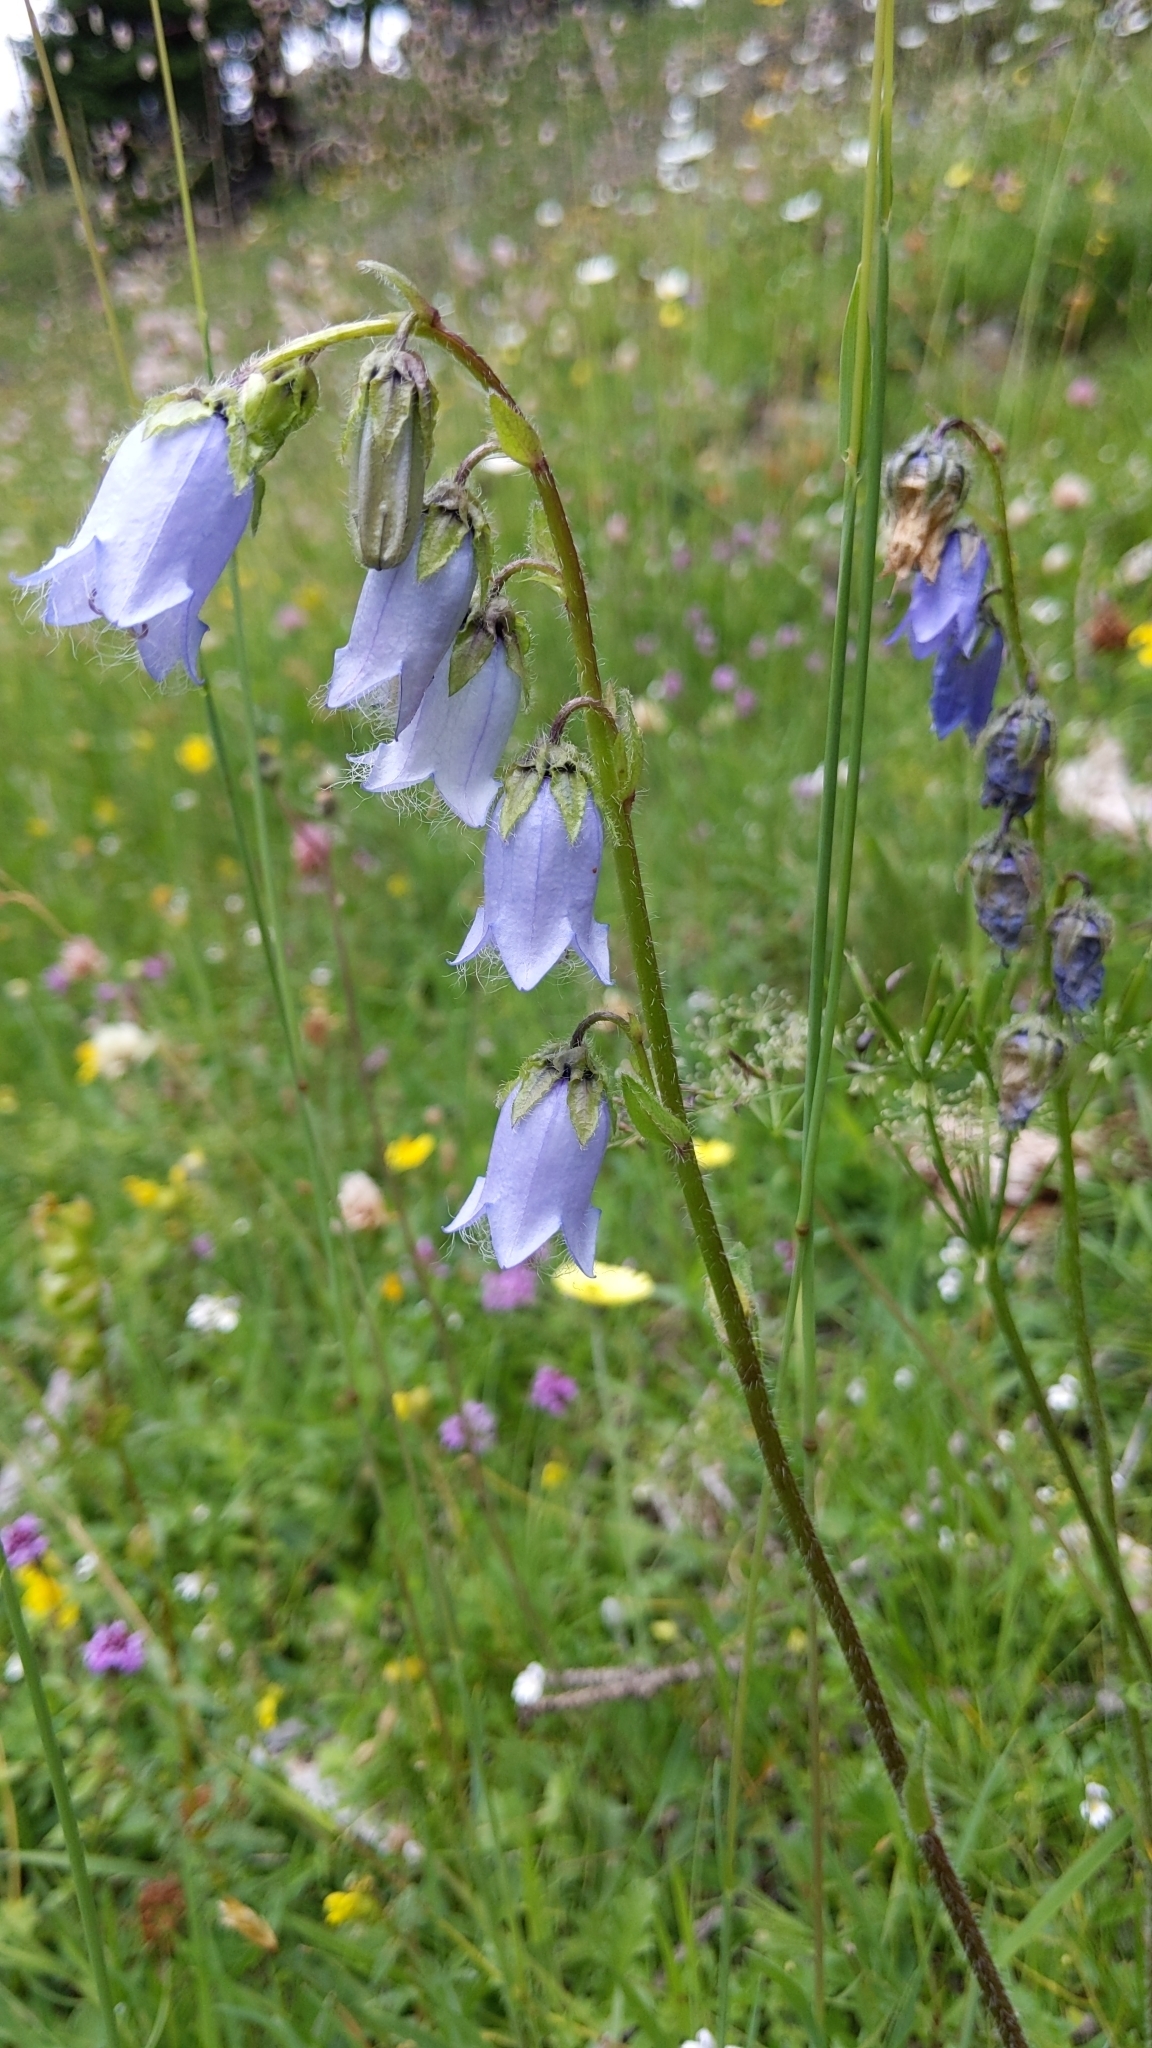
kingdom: Plantae
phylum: Tracheophyta
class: Magnoliopsida
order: Asterales
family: Campanulaceae
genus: Campanula
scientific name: Campanula barbata
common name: Bearded bellflower
